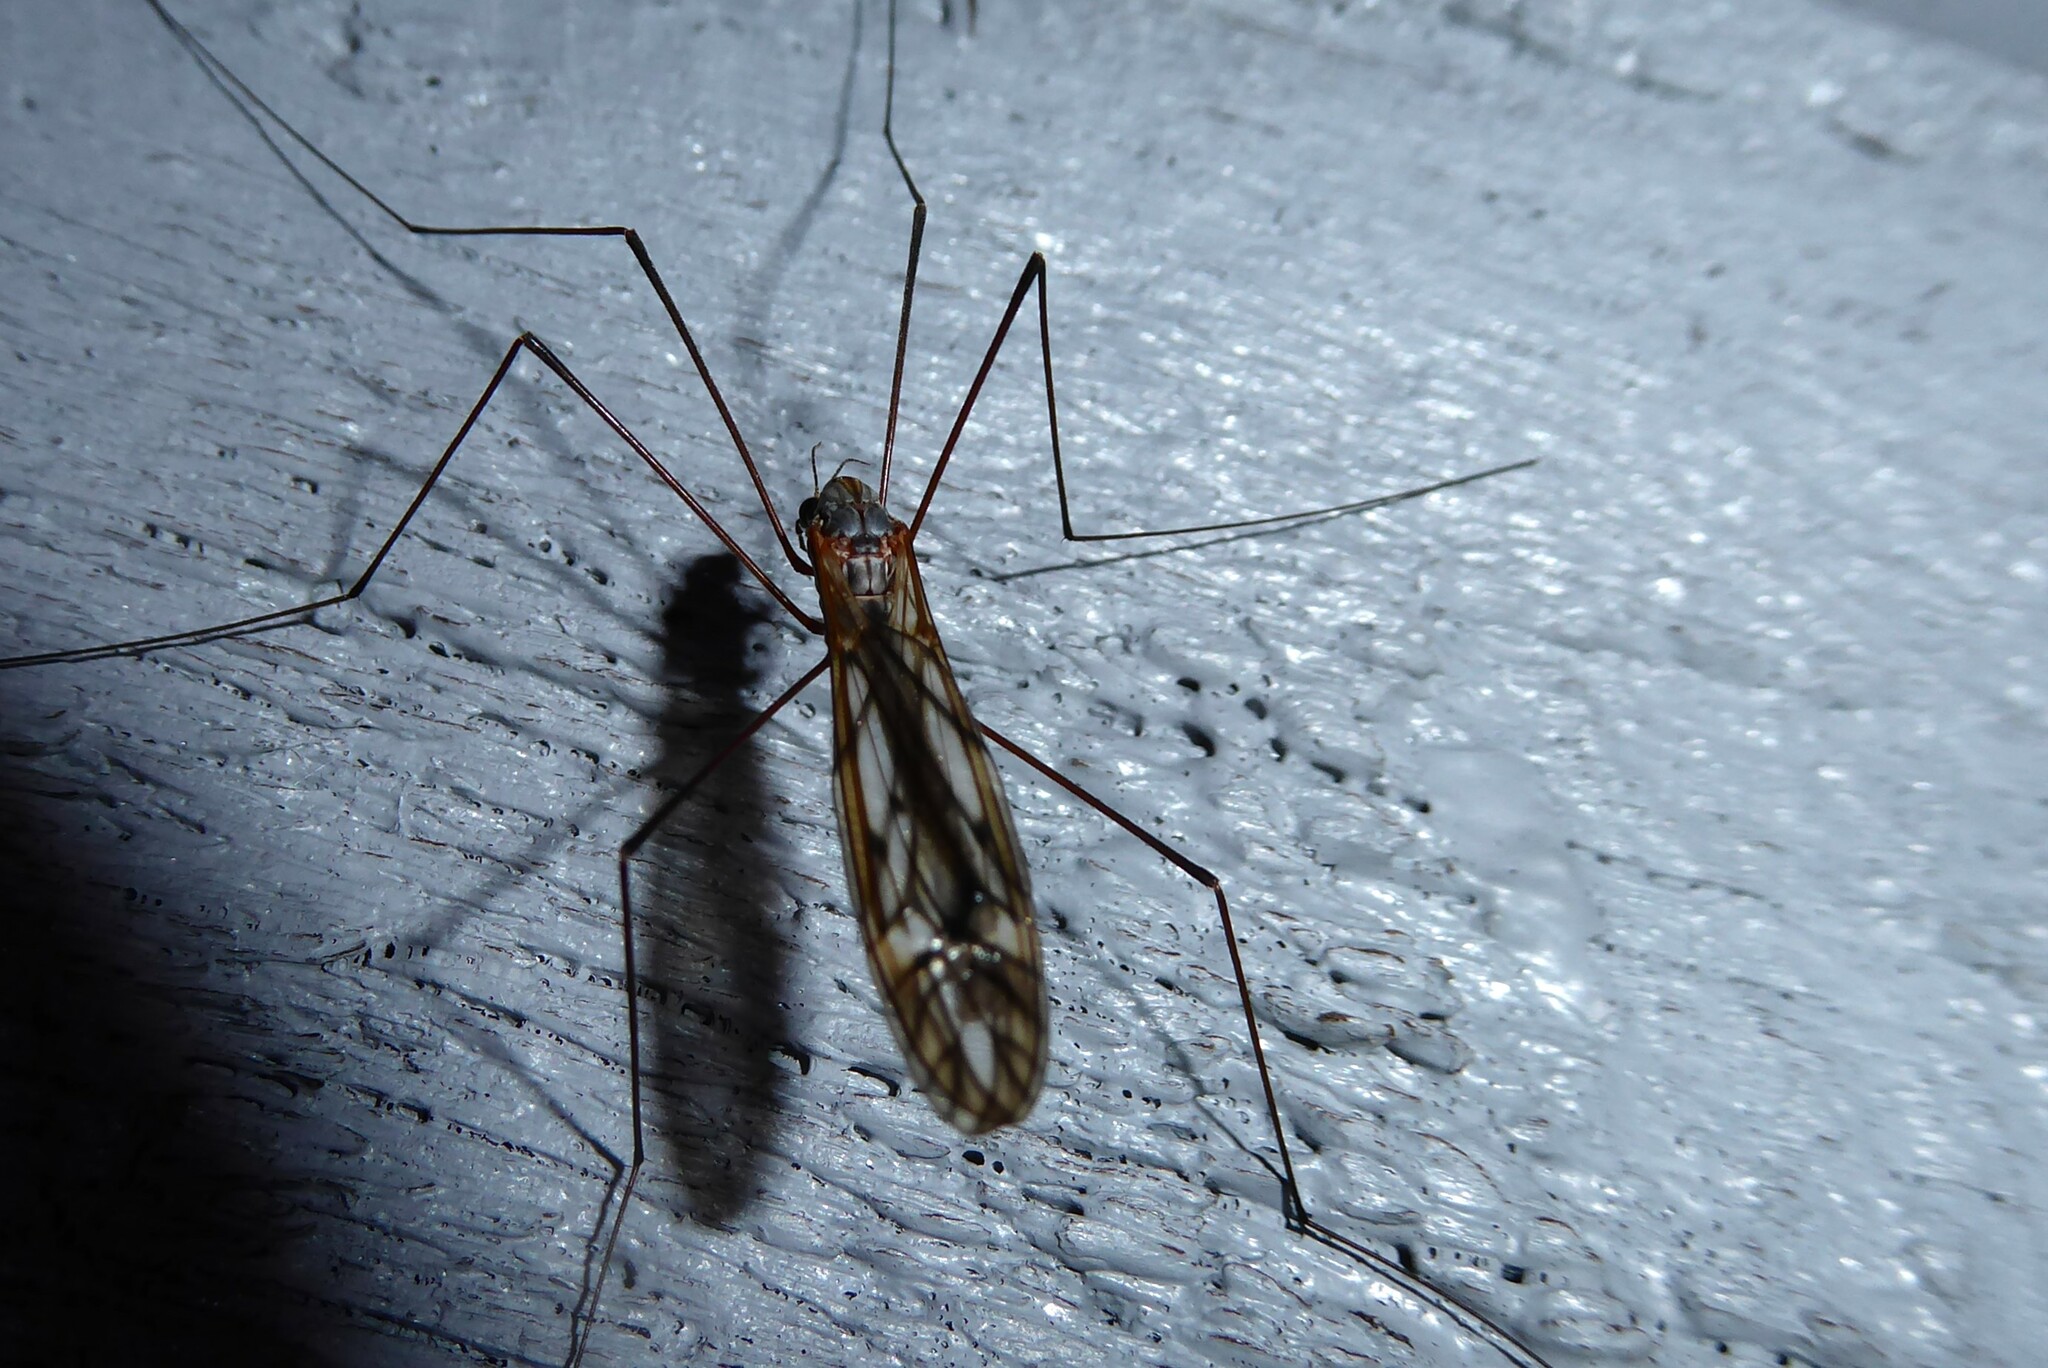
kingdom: Animalia
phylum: Arthropoda
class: Insecta
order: Diptera
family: Tipulidae
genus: Zelandotipula
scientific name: Zelandotipula novarae
